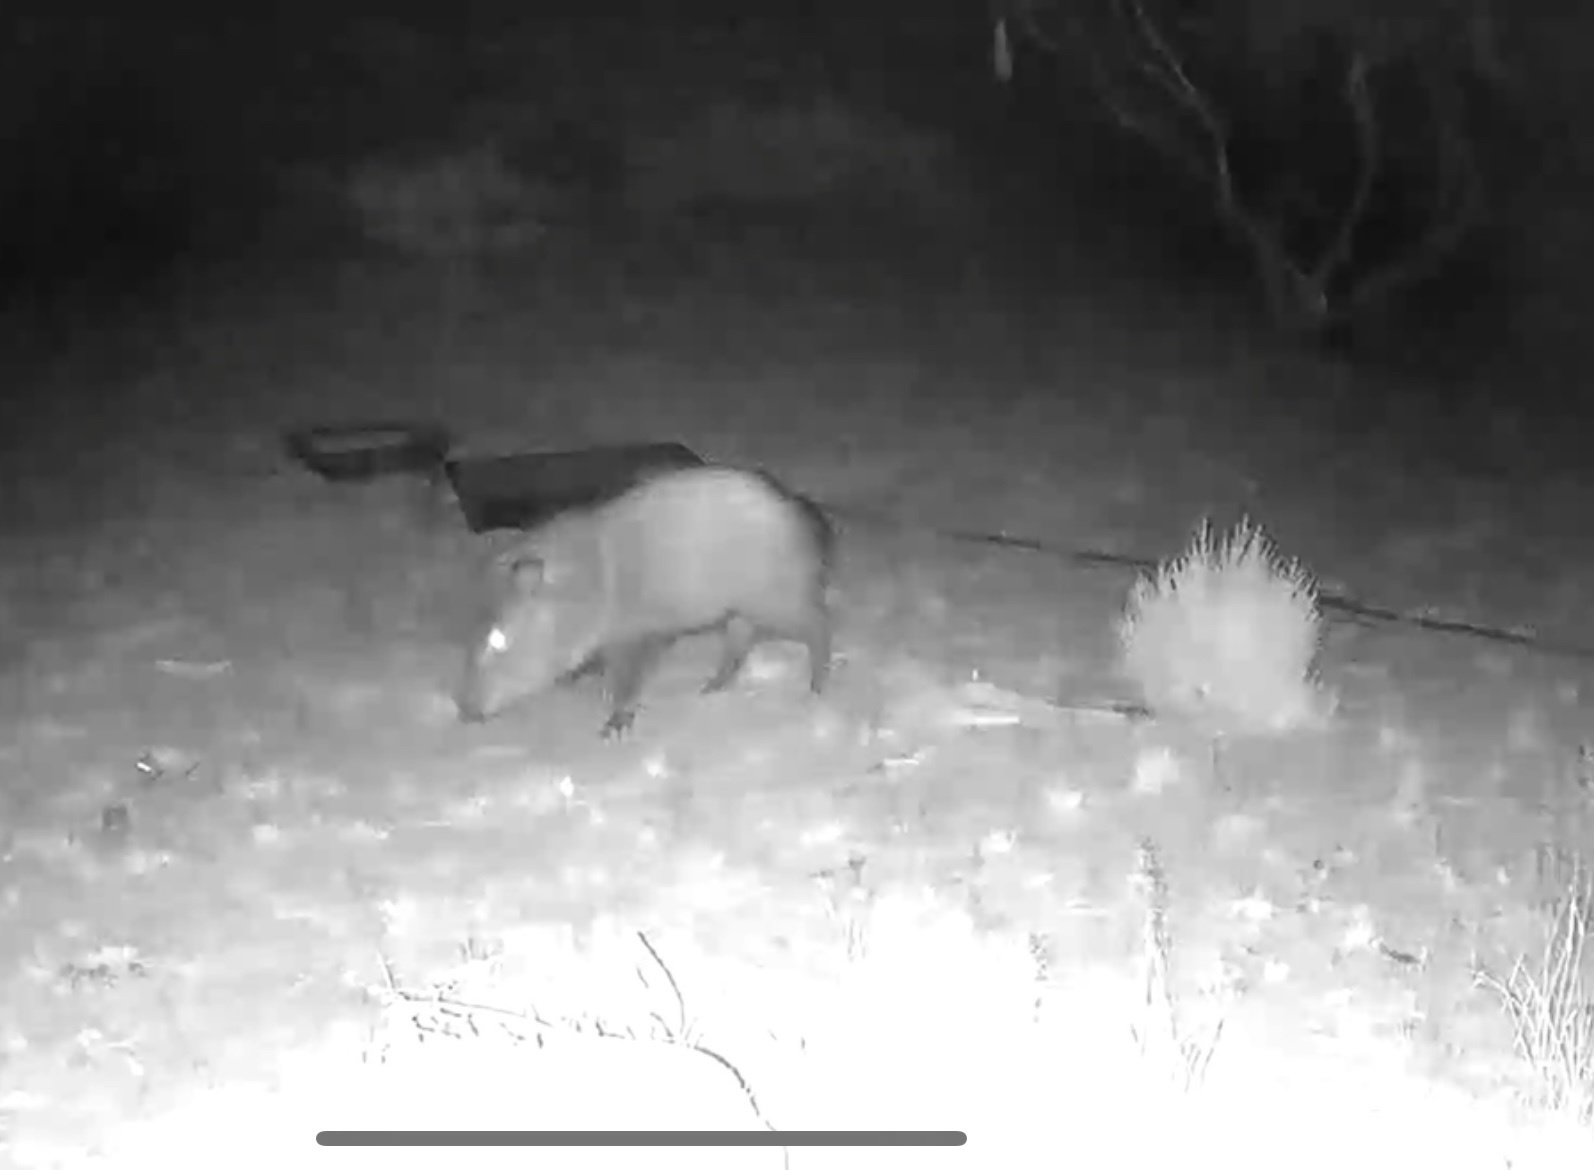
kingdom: Animalia
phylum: Chordata
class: Mammalia
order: Artiodactyla
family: Tayassuidae
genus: Pecari
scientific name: Pecari tajacu
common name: Collared peccary
